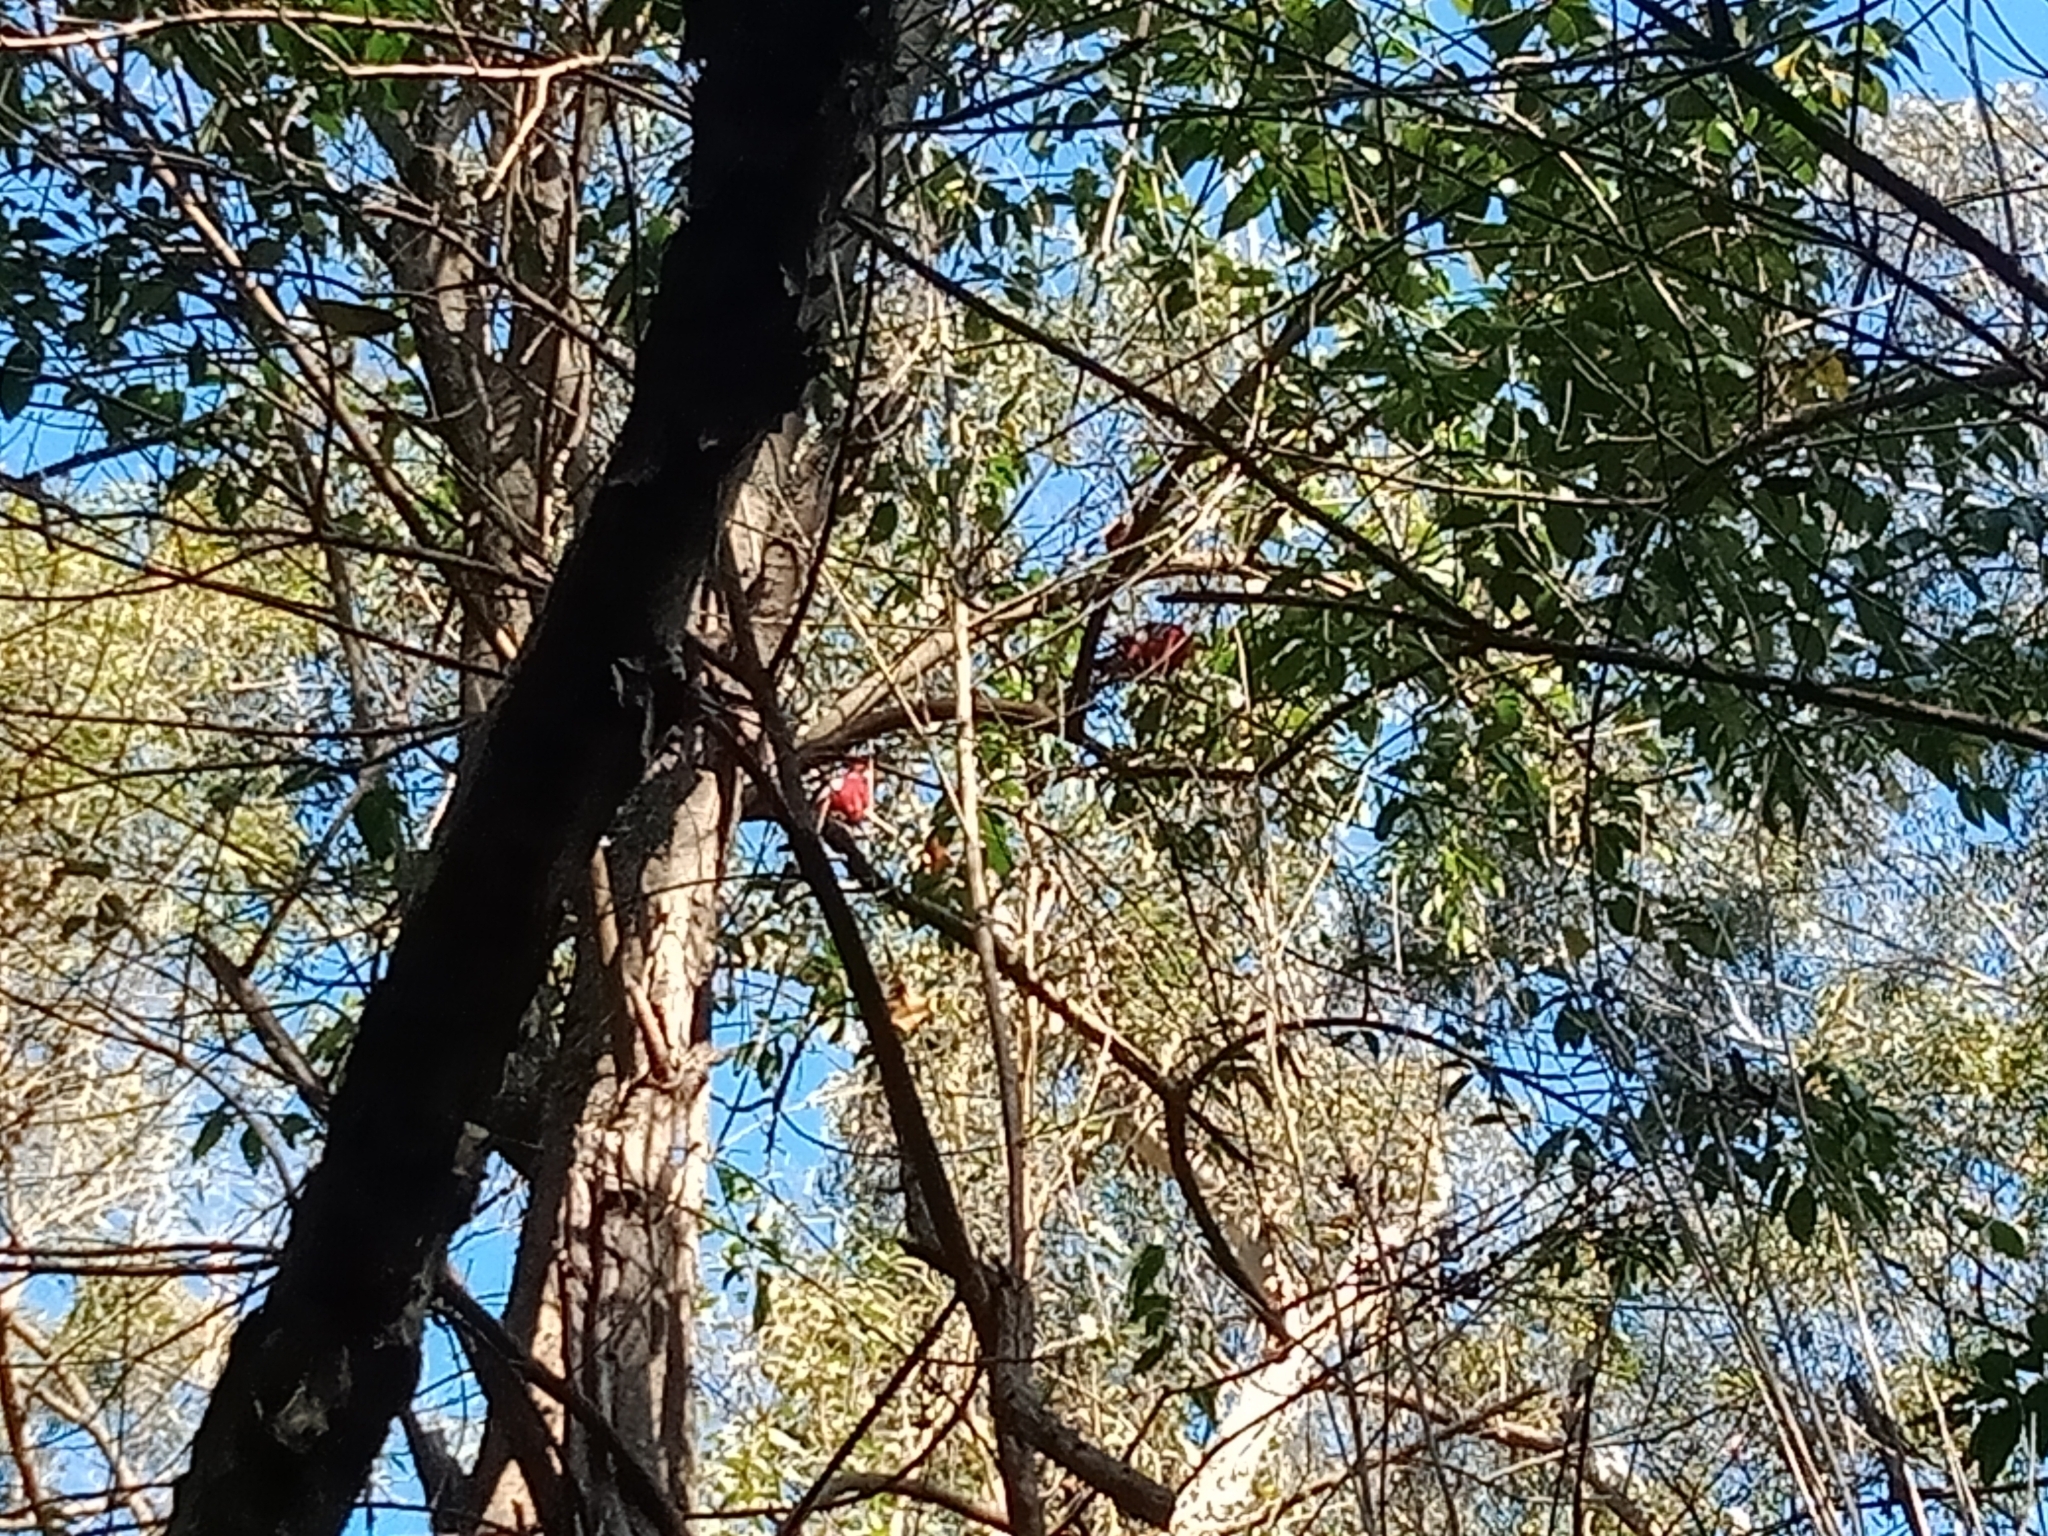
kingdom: Animalia
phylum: Chordata
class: Aves
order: Psittaciformes
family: Psittacidae
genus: Platycercus
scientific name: Platycercus elegans
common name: Crimson rosella
